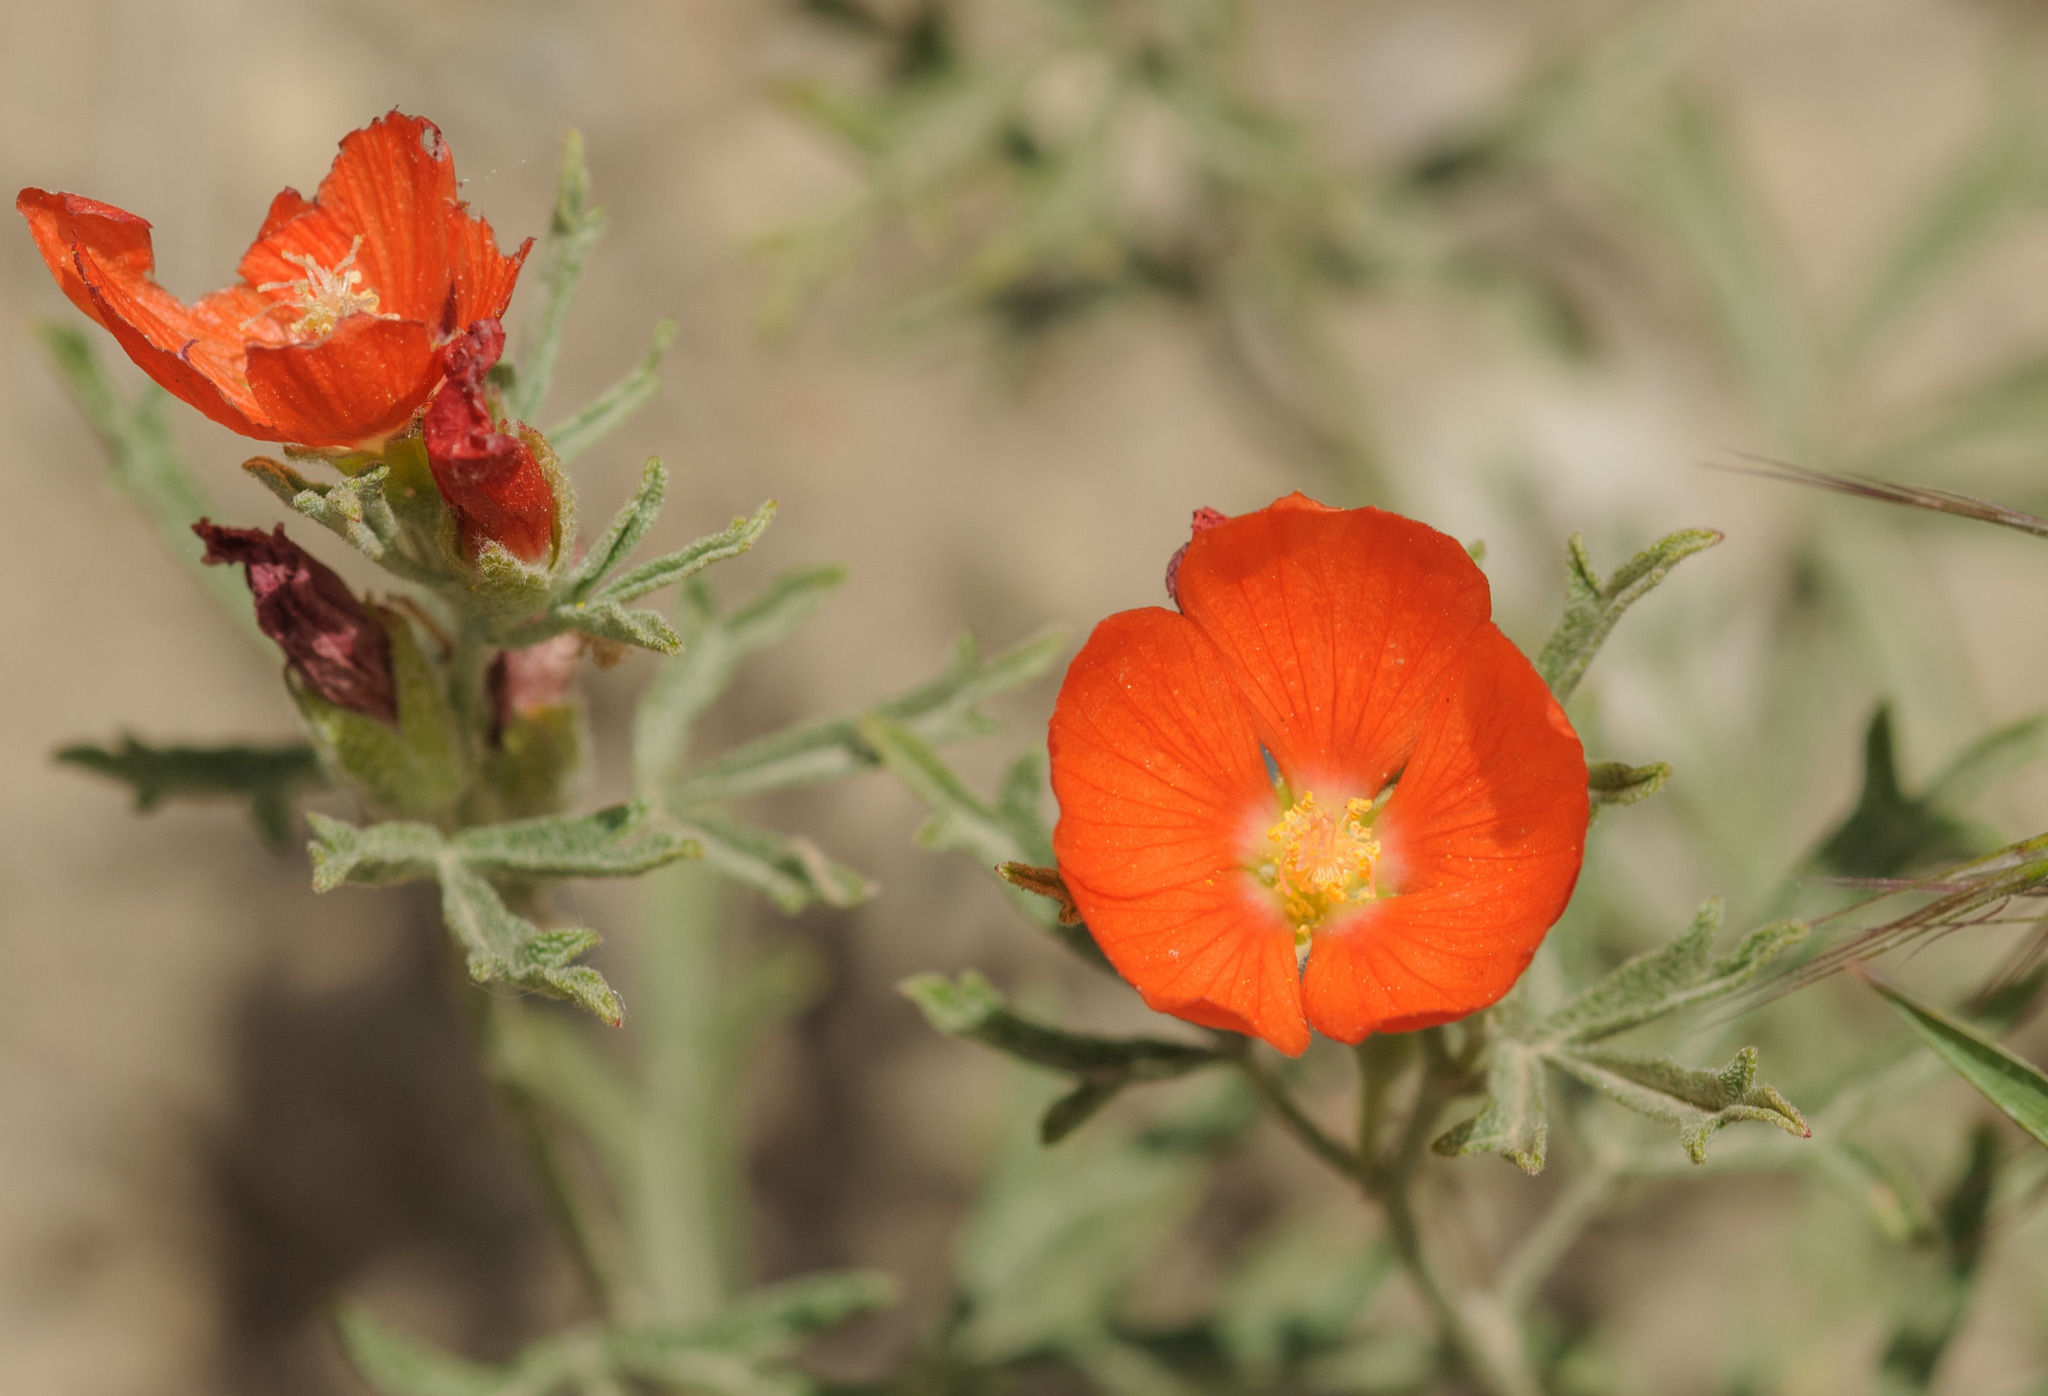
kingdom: Plantae
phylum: Tracheophyta
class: Magnoliopsida
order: Malvales
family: Malvaceae
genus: Sphaeralcea
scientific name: Sphaeralcea coccinea
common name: Moss-rose
